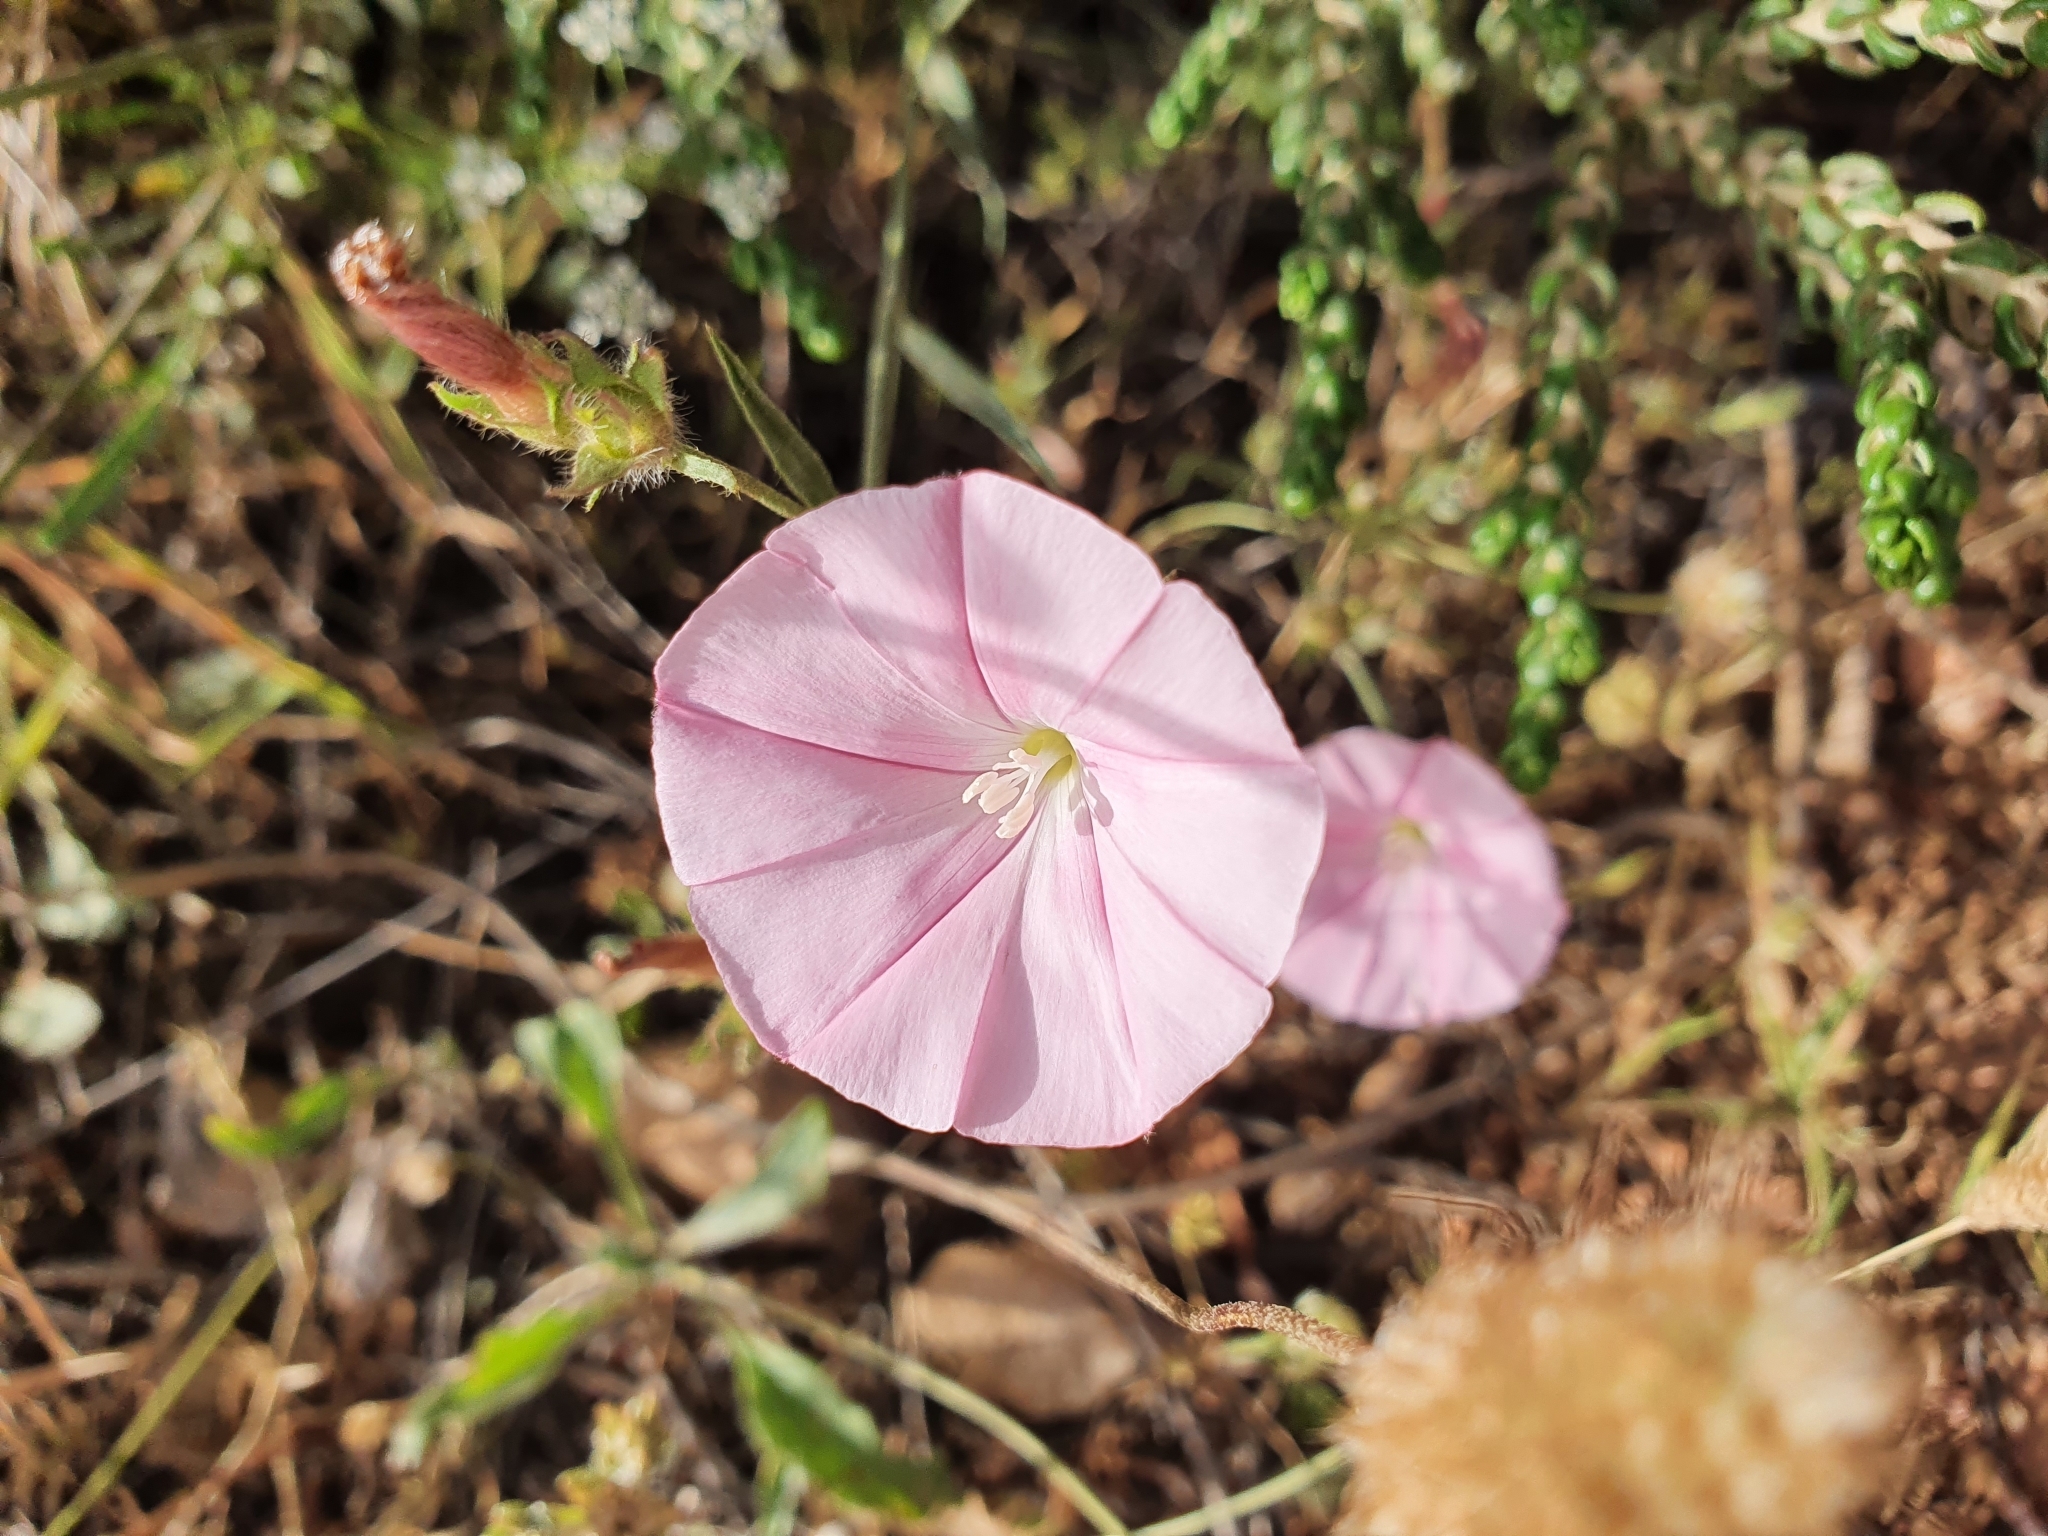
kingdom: Plantae
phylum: Tracheophyta
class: Magnoliopsida
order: Solanales
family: Convolvulaceae
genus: Convolvulus
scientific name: Convolvulus cantabrica
